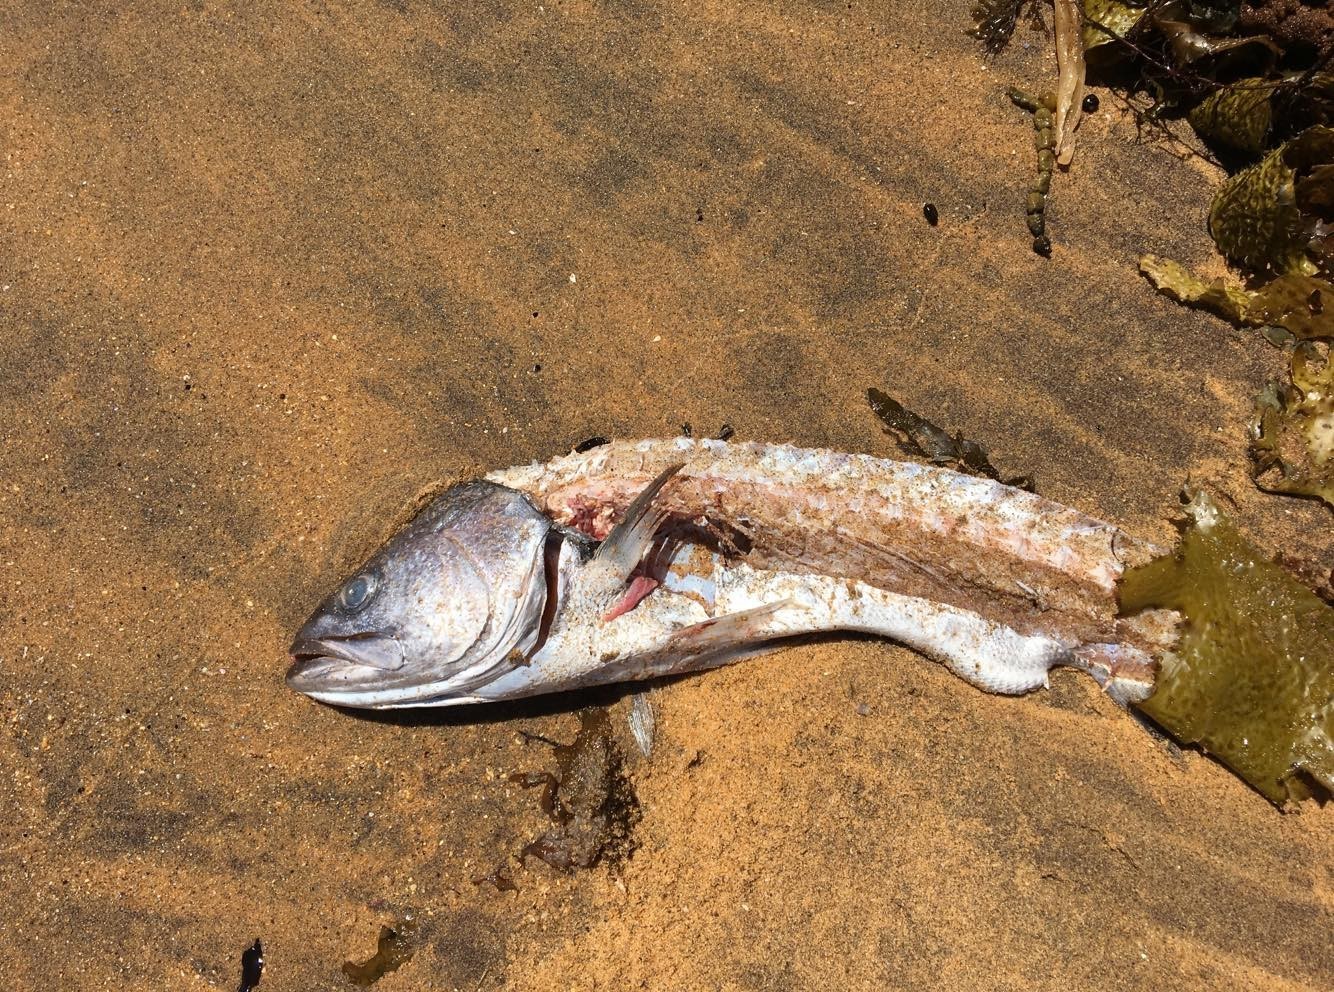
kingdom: Animalia
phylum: Chordata
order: Perciformes
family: Sciaenidae
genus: Argyrosomus
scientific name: Argyrosomus japonicus
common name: Japanese meagre
